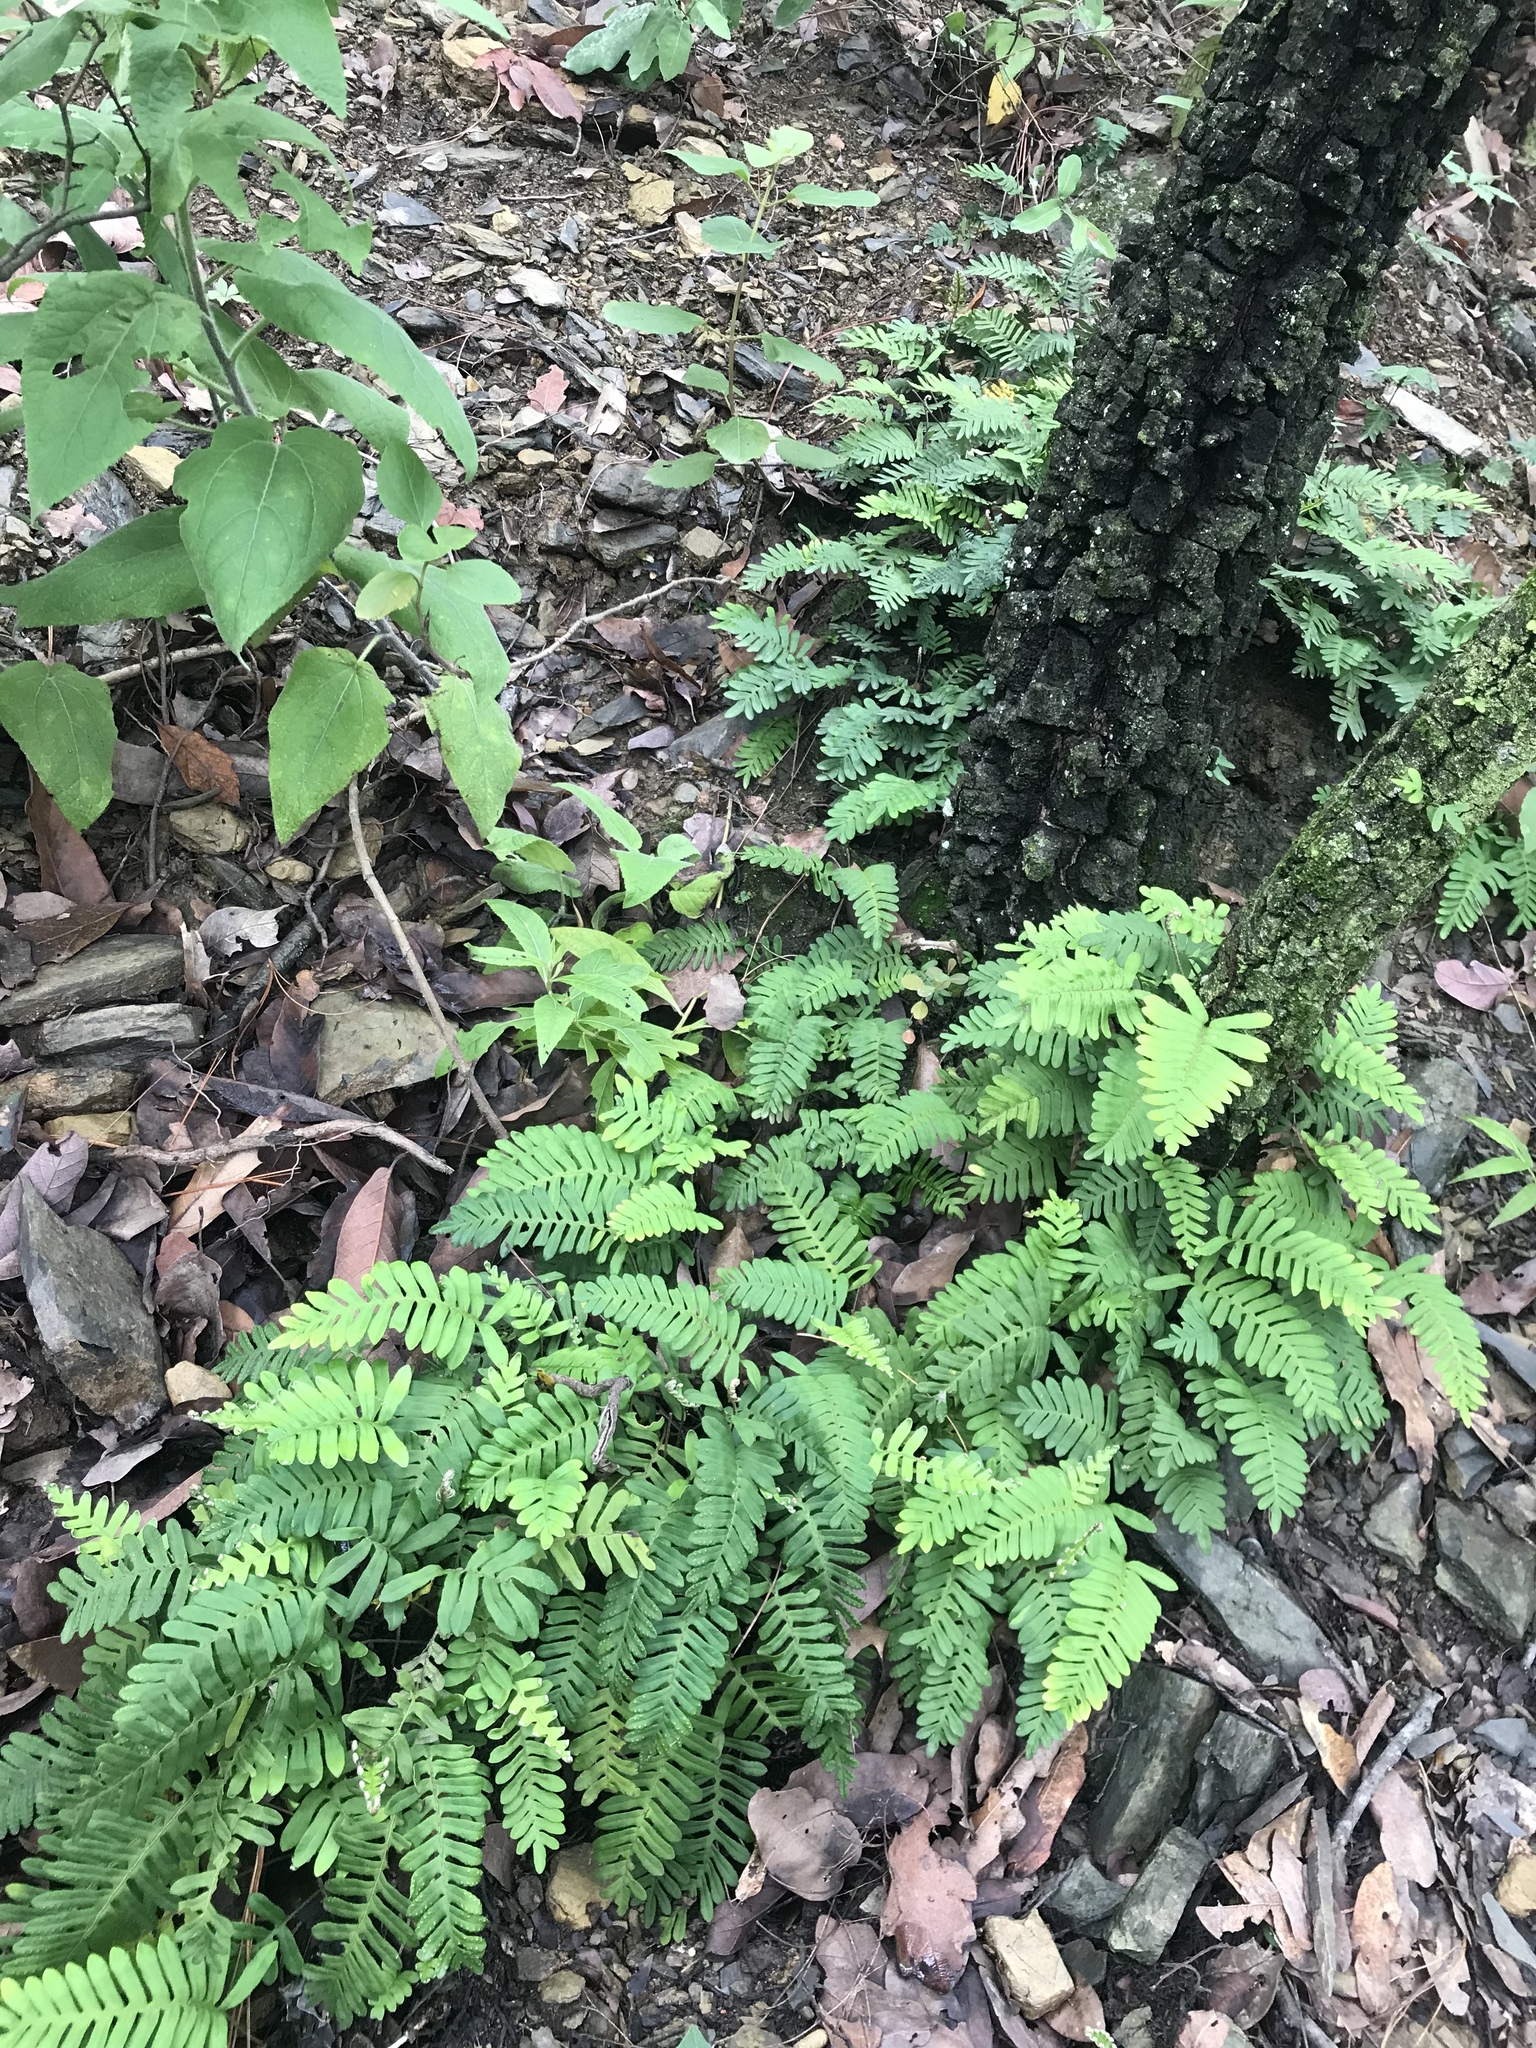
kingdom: Plantae
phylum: Tracheophyta
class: Polypodiopsida
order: Polypodiales
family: Polypodiaceae
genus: Pleopeltis
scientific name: Pleopeltis michauxiana
